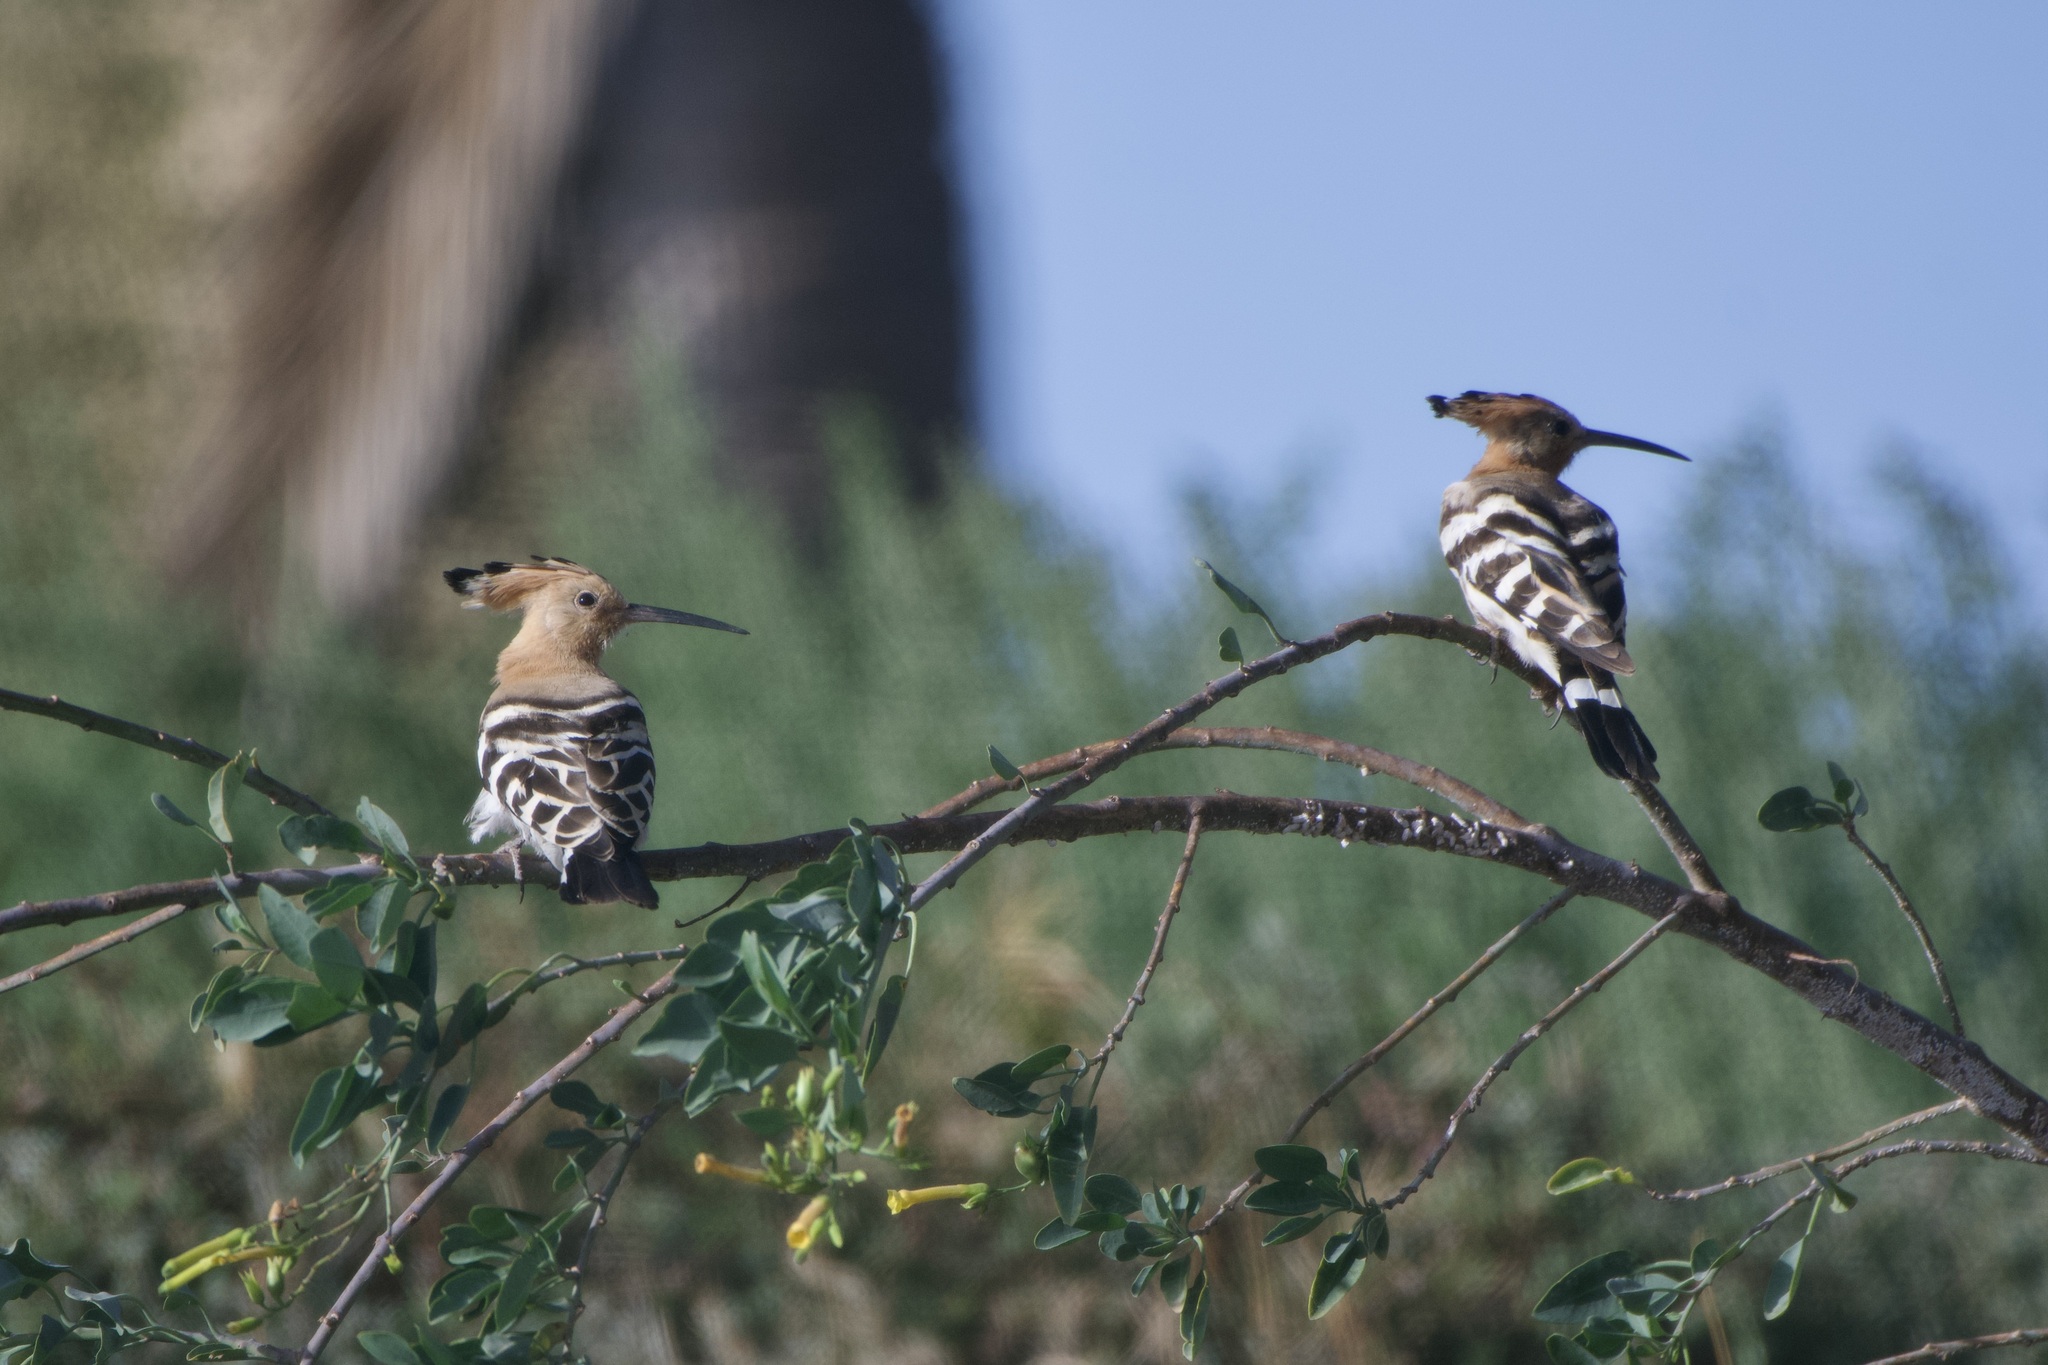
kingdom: Animalia
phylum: Chordata
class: Aves
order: Bucerotiformes
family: Upupidae
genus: Upupa
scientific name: Upupa epops
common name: Eurasian hoopoe
